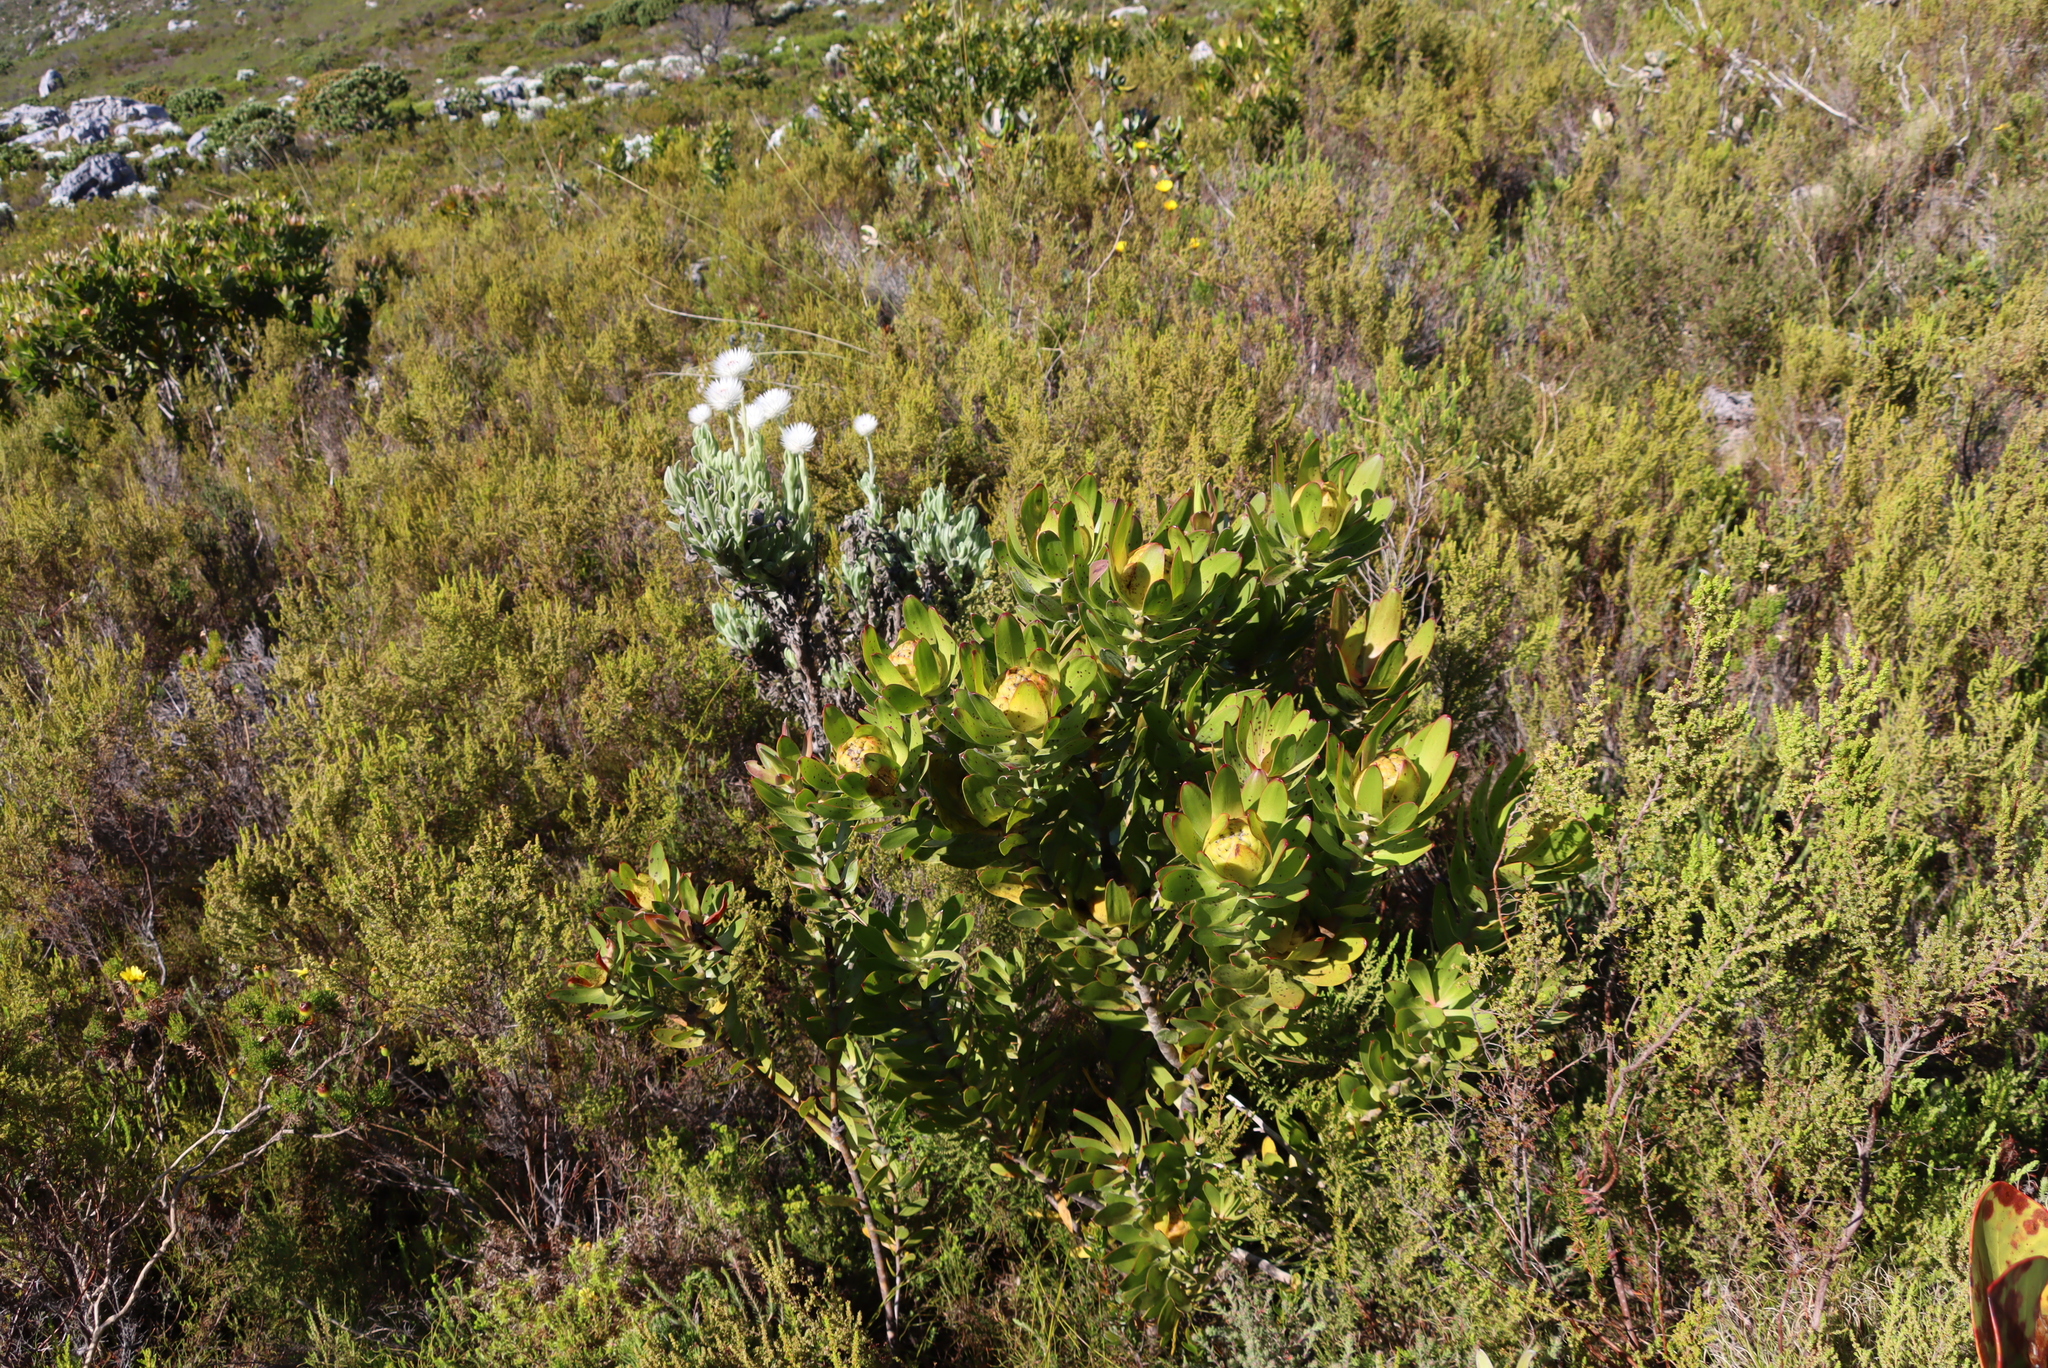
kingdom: Plantae
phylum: Tracheophyta
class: Magnoliopsida
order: Proteales
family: Proteaceae
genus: Leucadendron
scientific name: Leucadendron laureolum
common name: Golden sunshinebush
